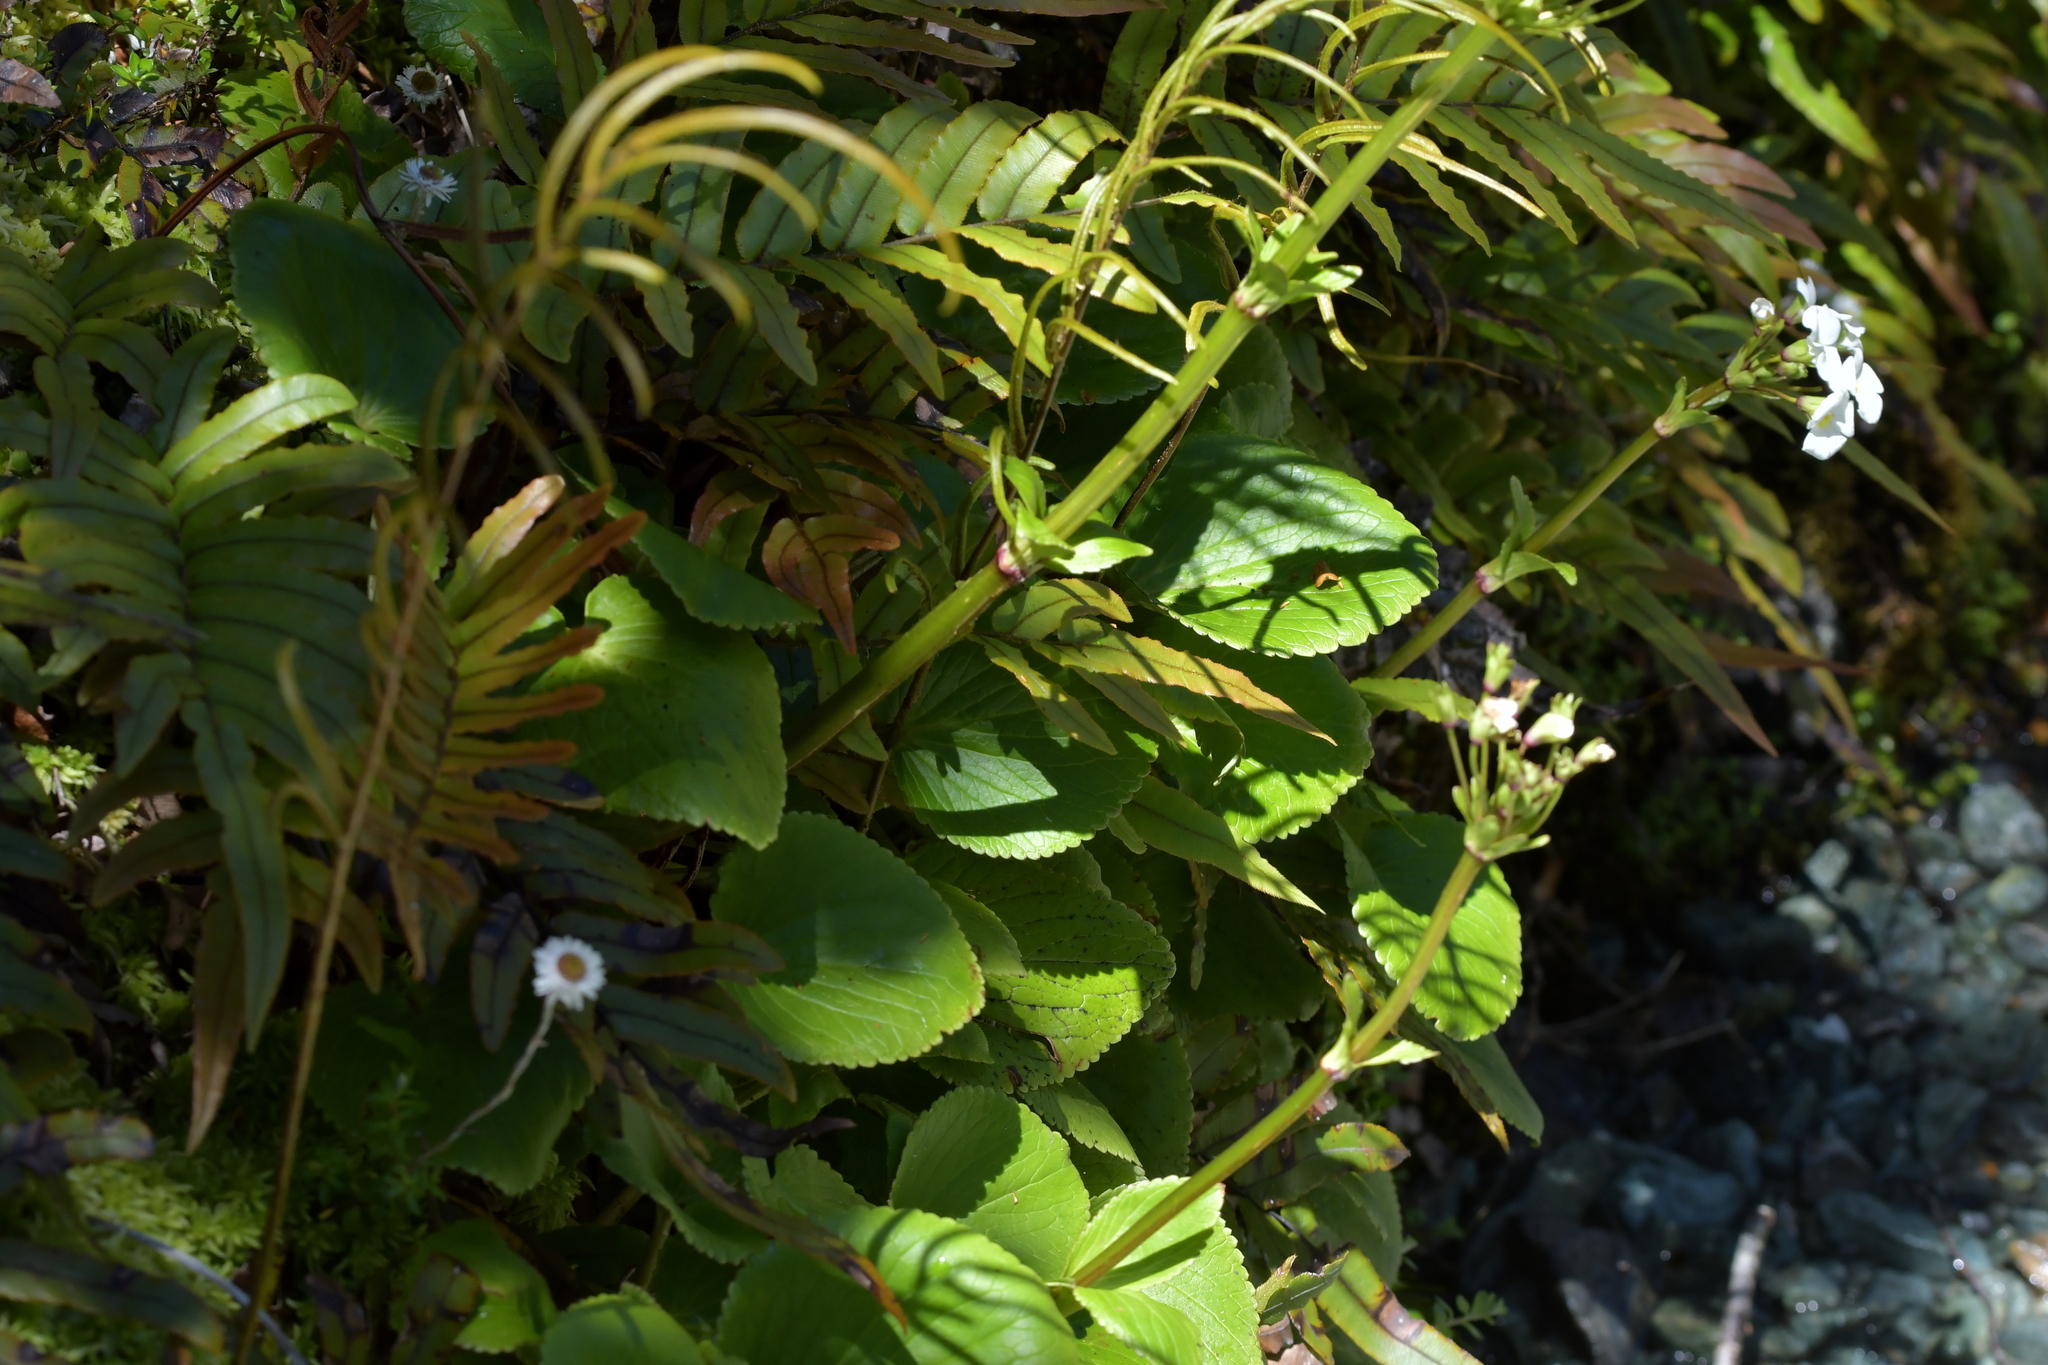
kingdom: Plantae
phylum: Tracheophyta
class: Magnoliopsida
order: Lamiales
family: Plantaginaceae
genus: Ourisia
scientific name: Ourisia macrocarpa
